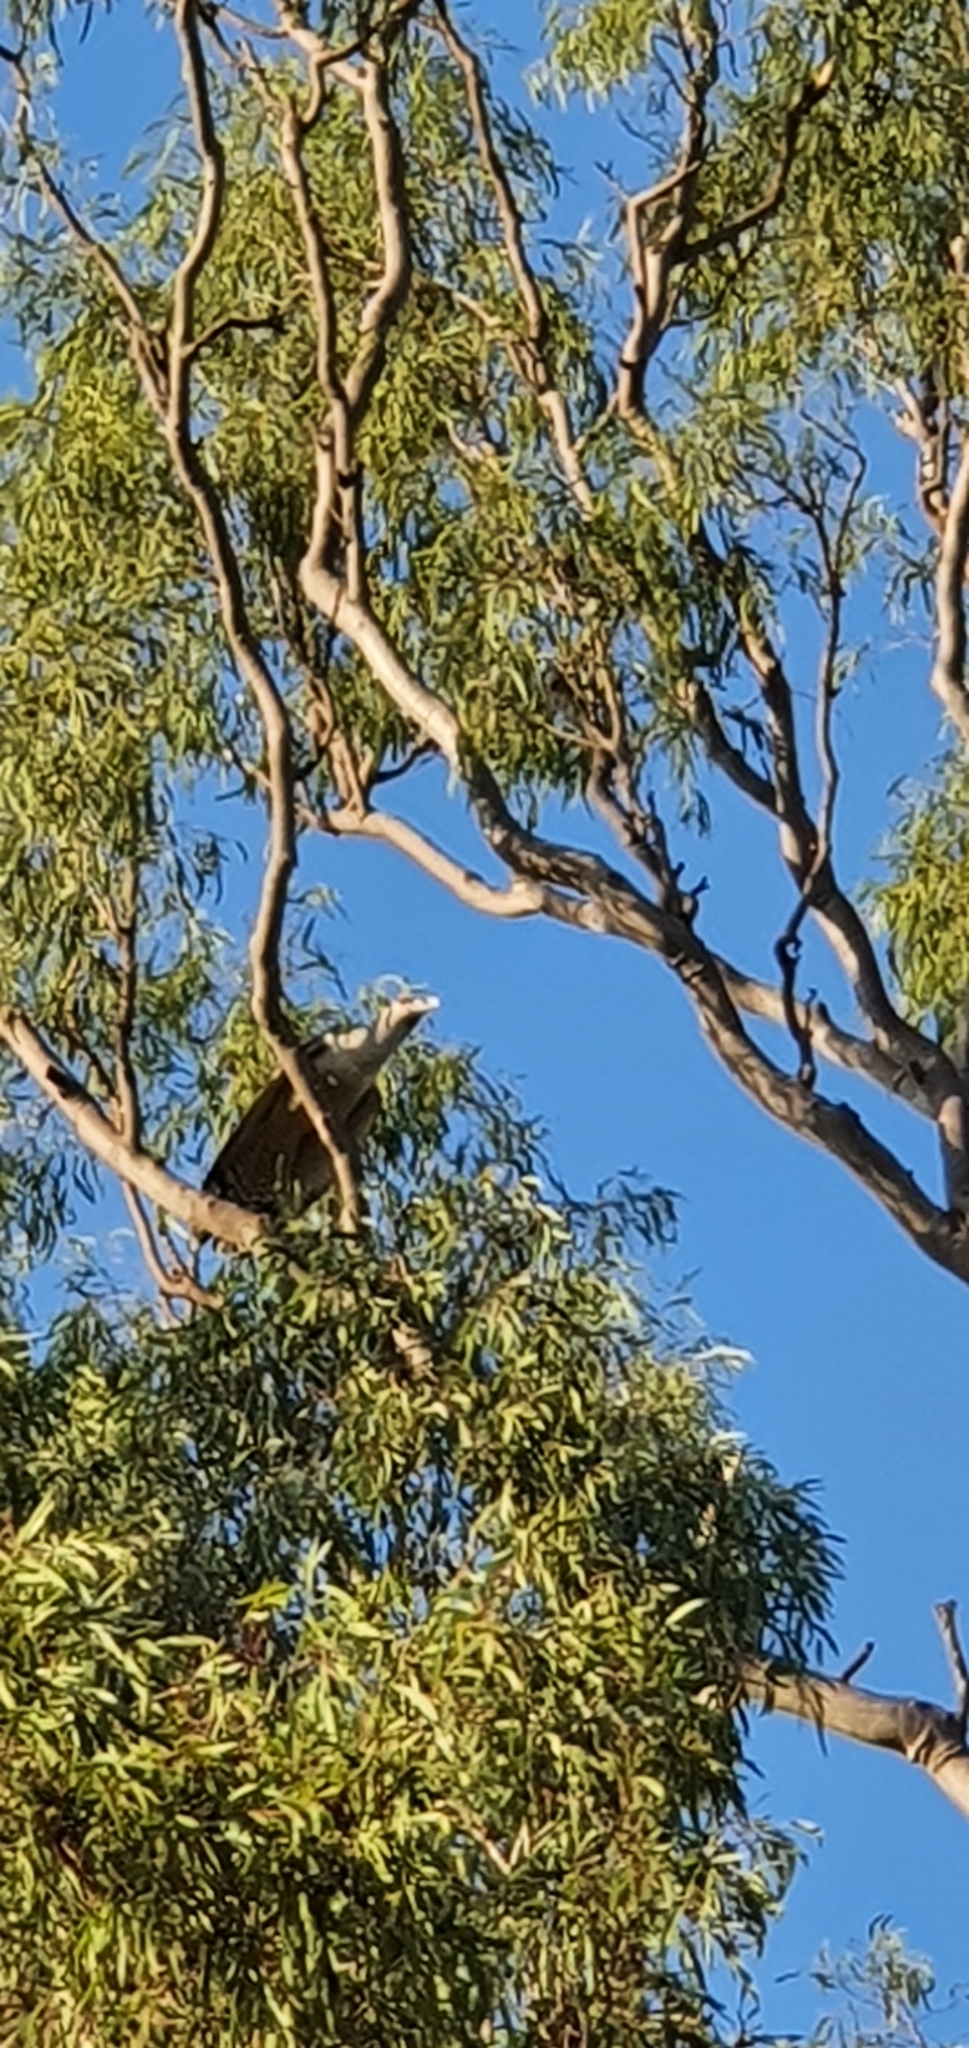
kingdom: Animalia
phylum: Chordata
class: Aves
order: Cuculiformes
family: Cuculidae
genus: Scythrops
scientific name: Scythrops novaehollandiae
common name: Channel-billed cuckoo
